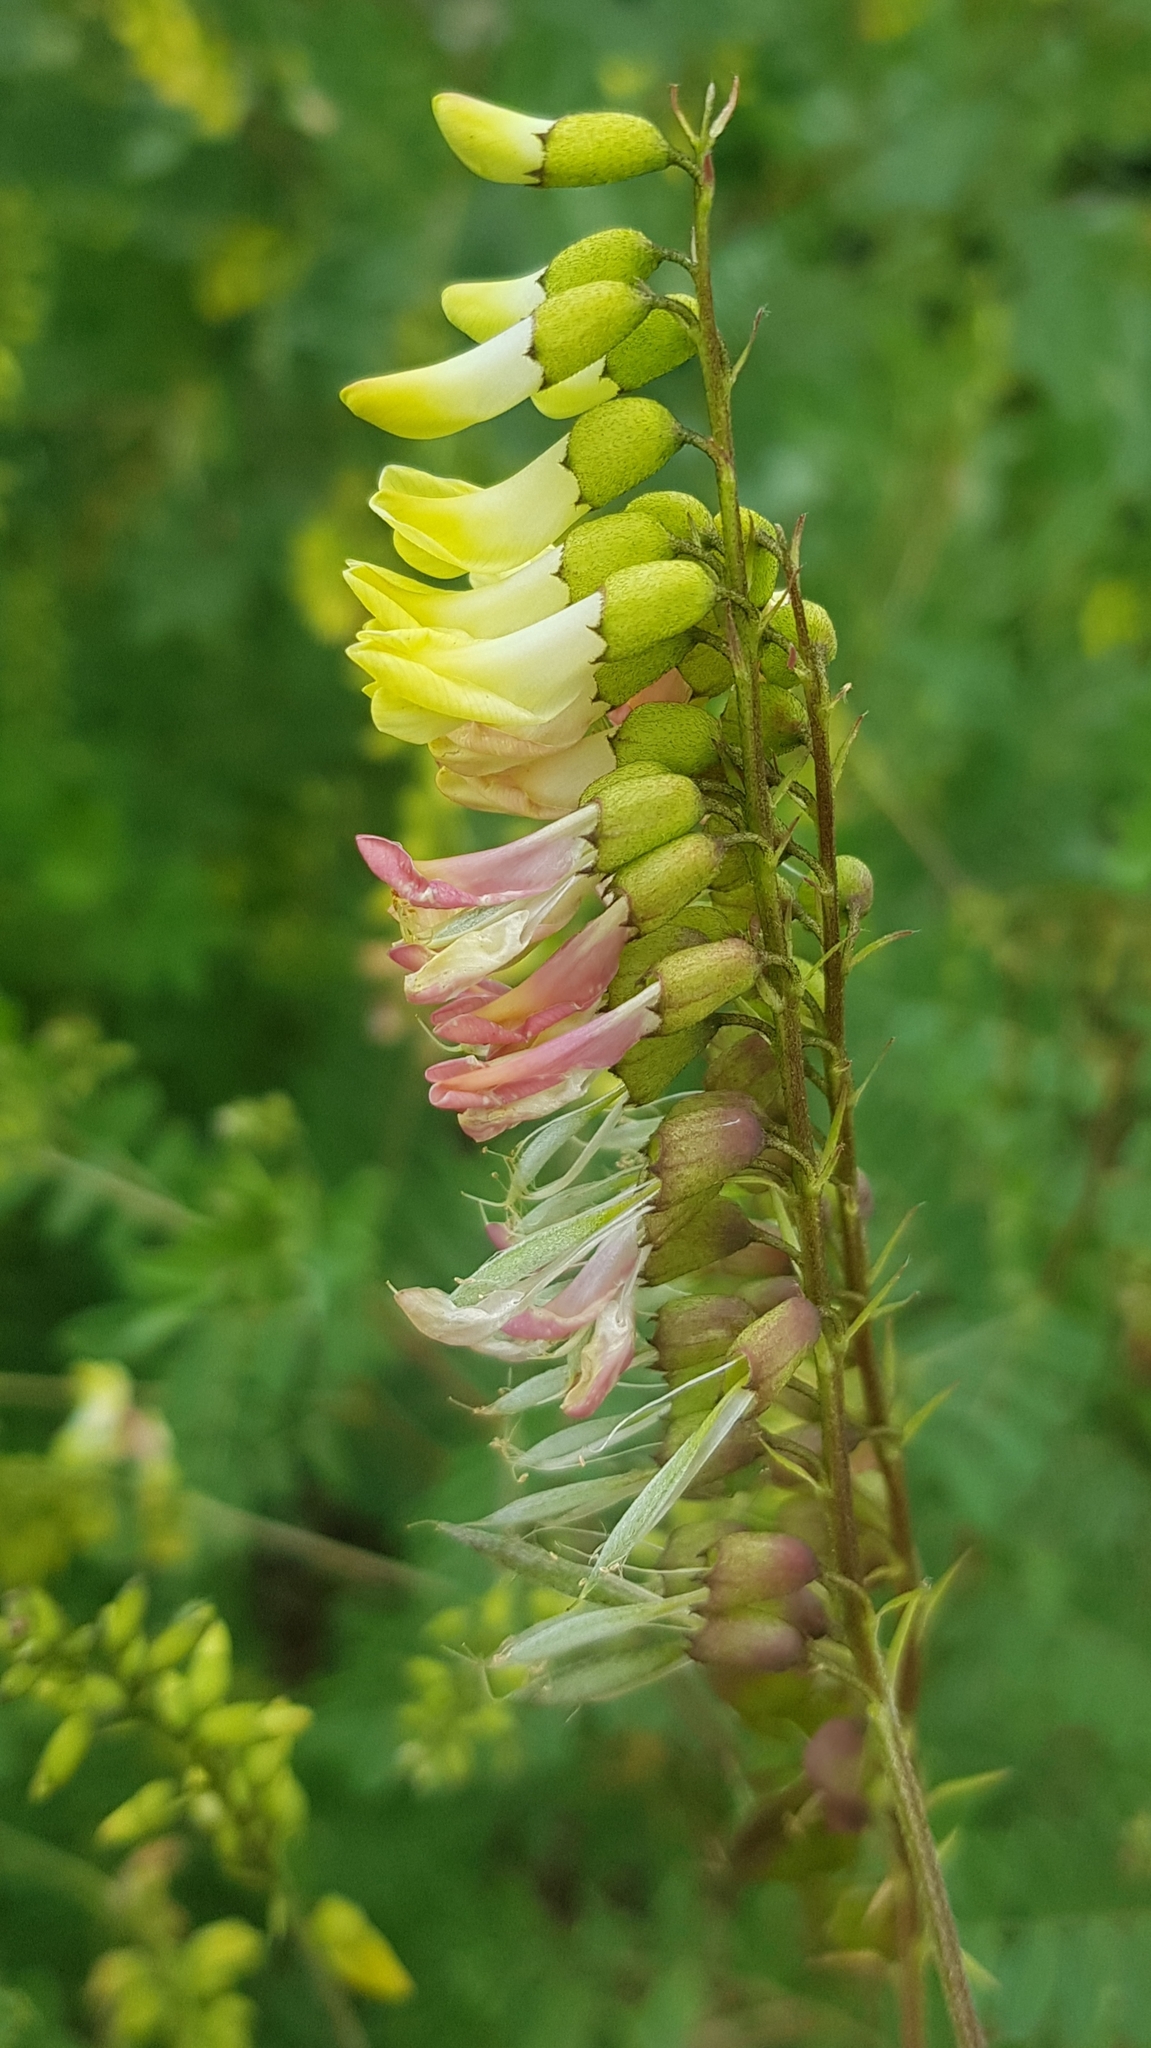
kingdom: Plantae
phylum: Tracheophyta
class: Magnoliopsida
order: Fabales
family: Fabaceae
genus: Astragalus
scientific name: Astragalus frigidus
